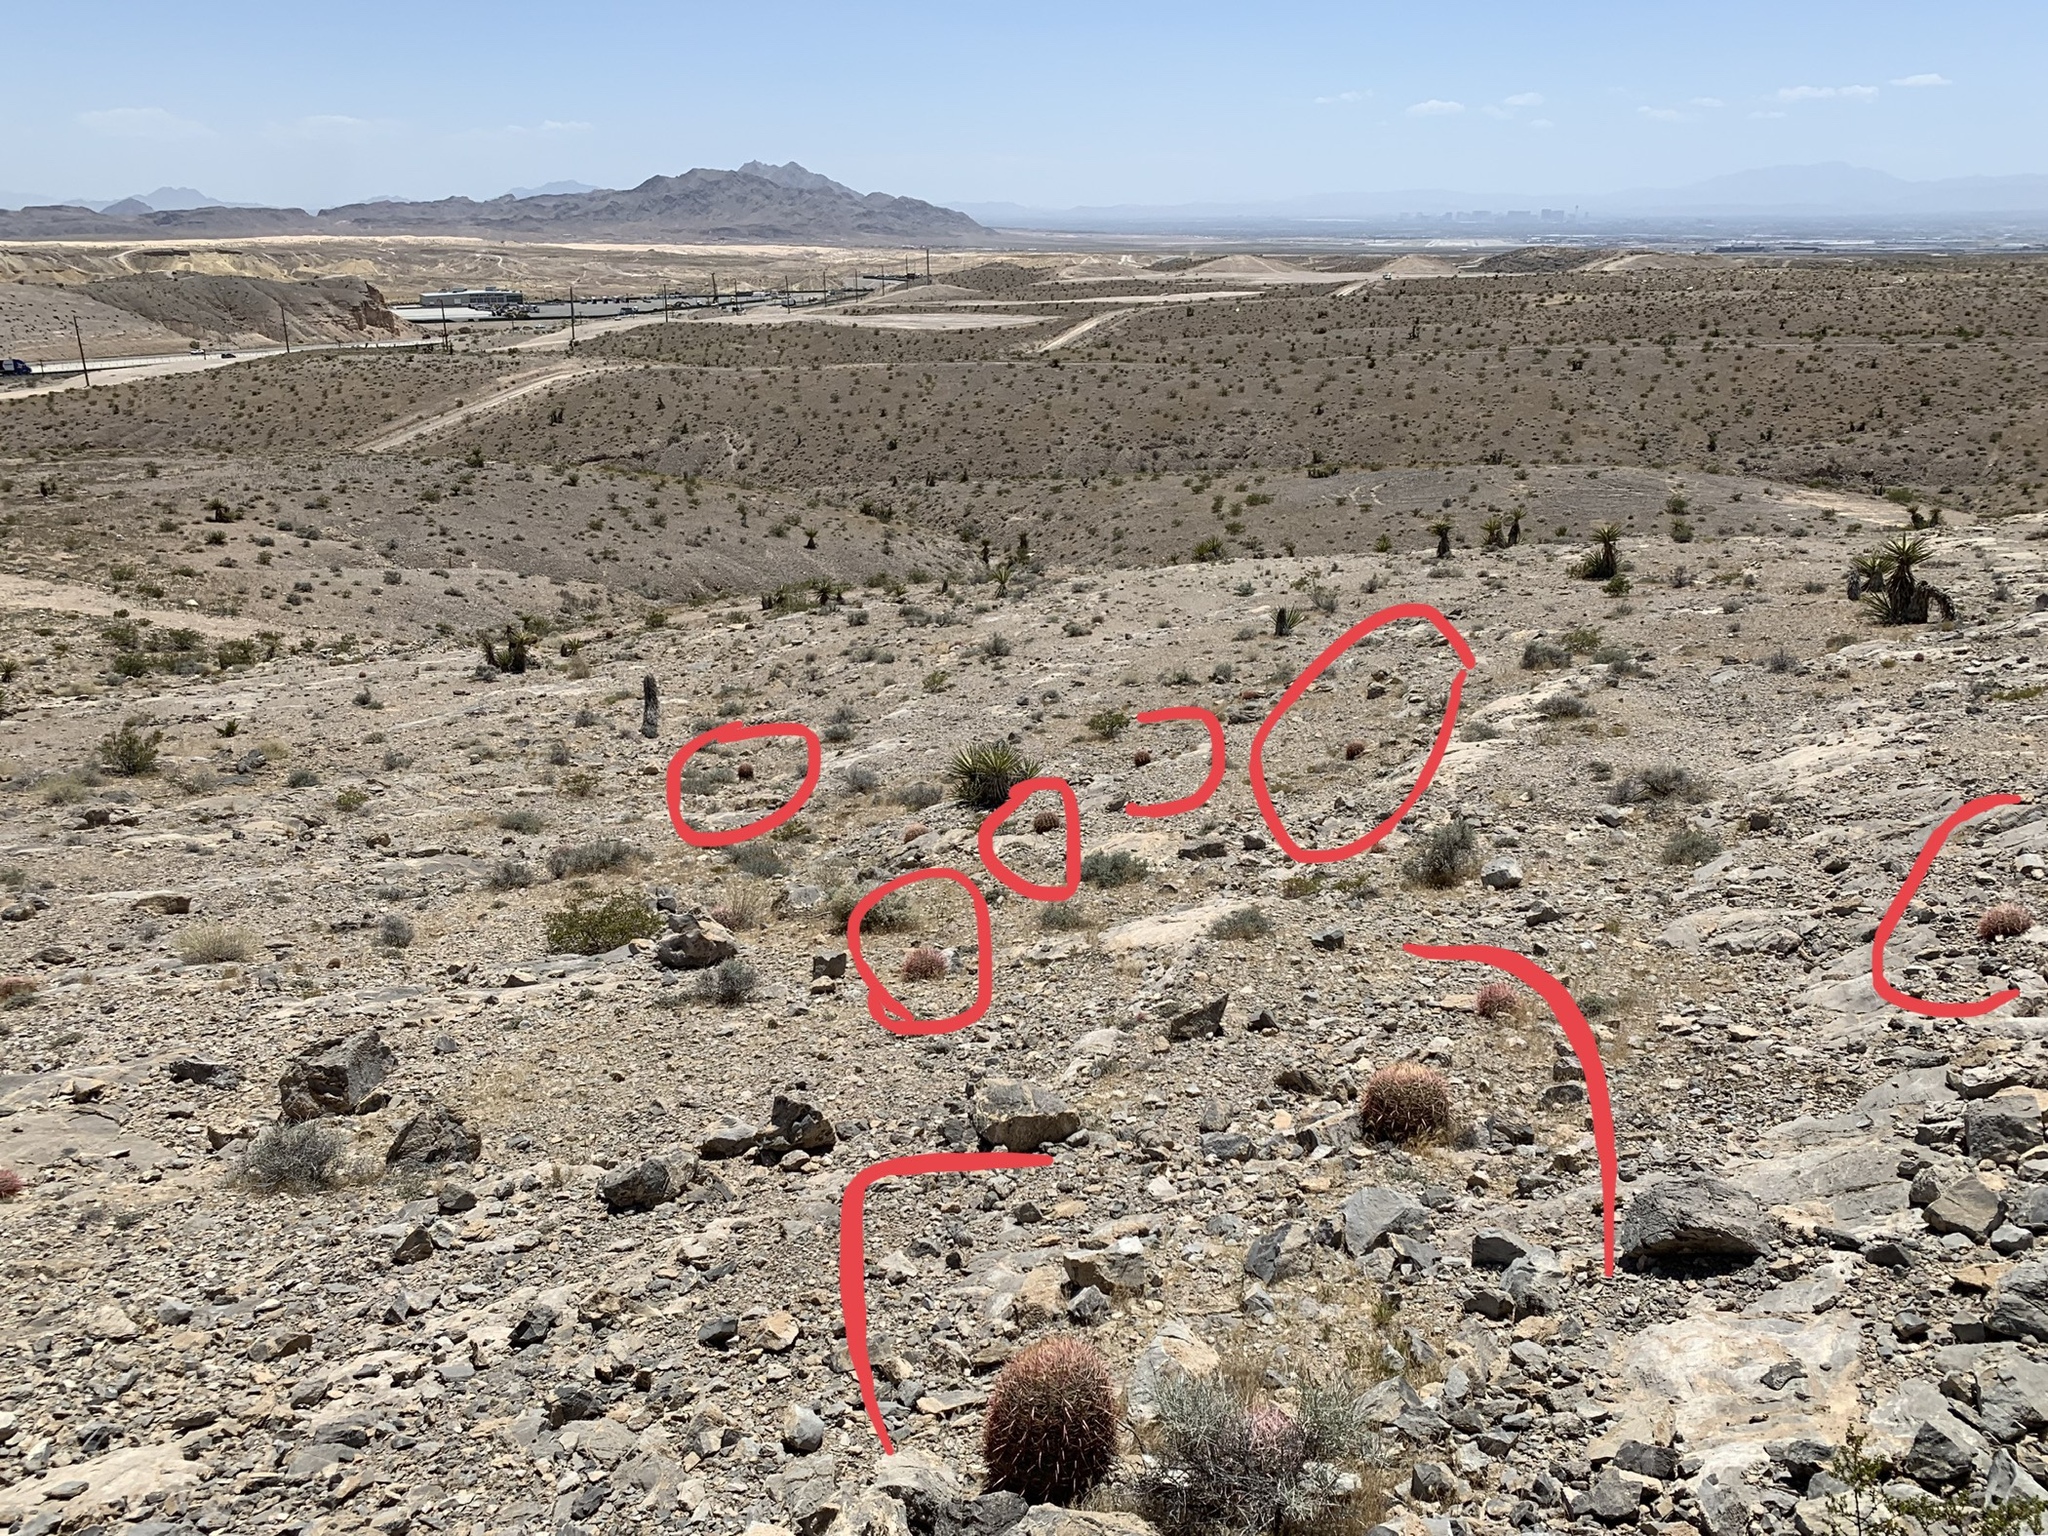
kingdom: Plantae
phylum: Tracheophyta
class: Magnoliopsida
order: Caryophyllales
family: Cactaceae
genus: Ferocactus
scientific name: Ferocactus cylindraceus
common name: California barrel cactus
